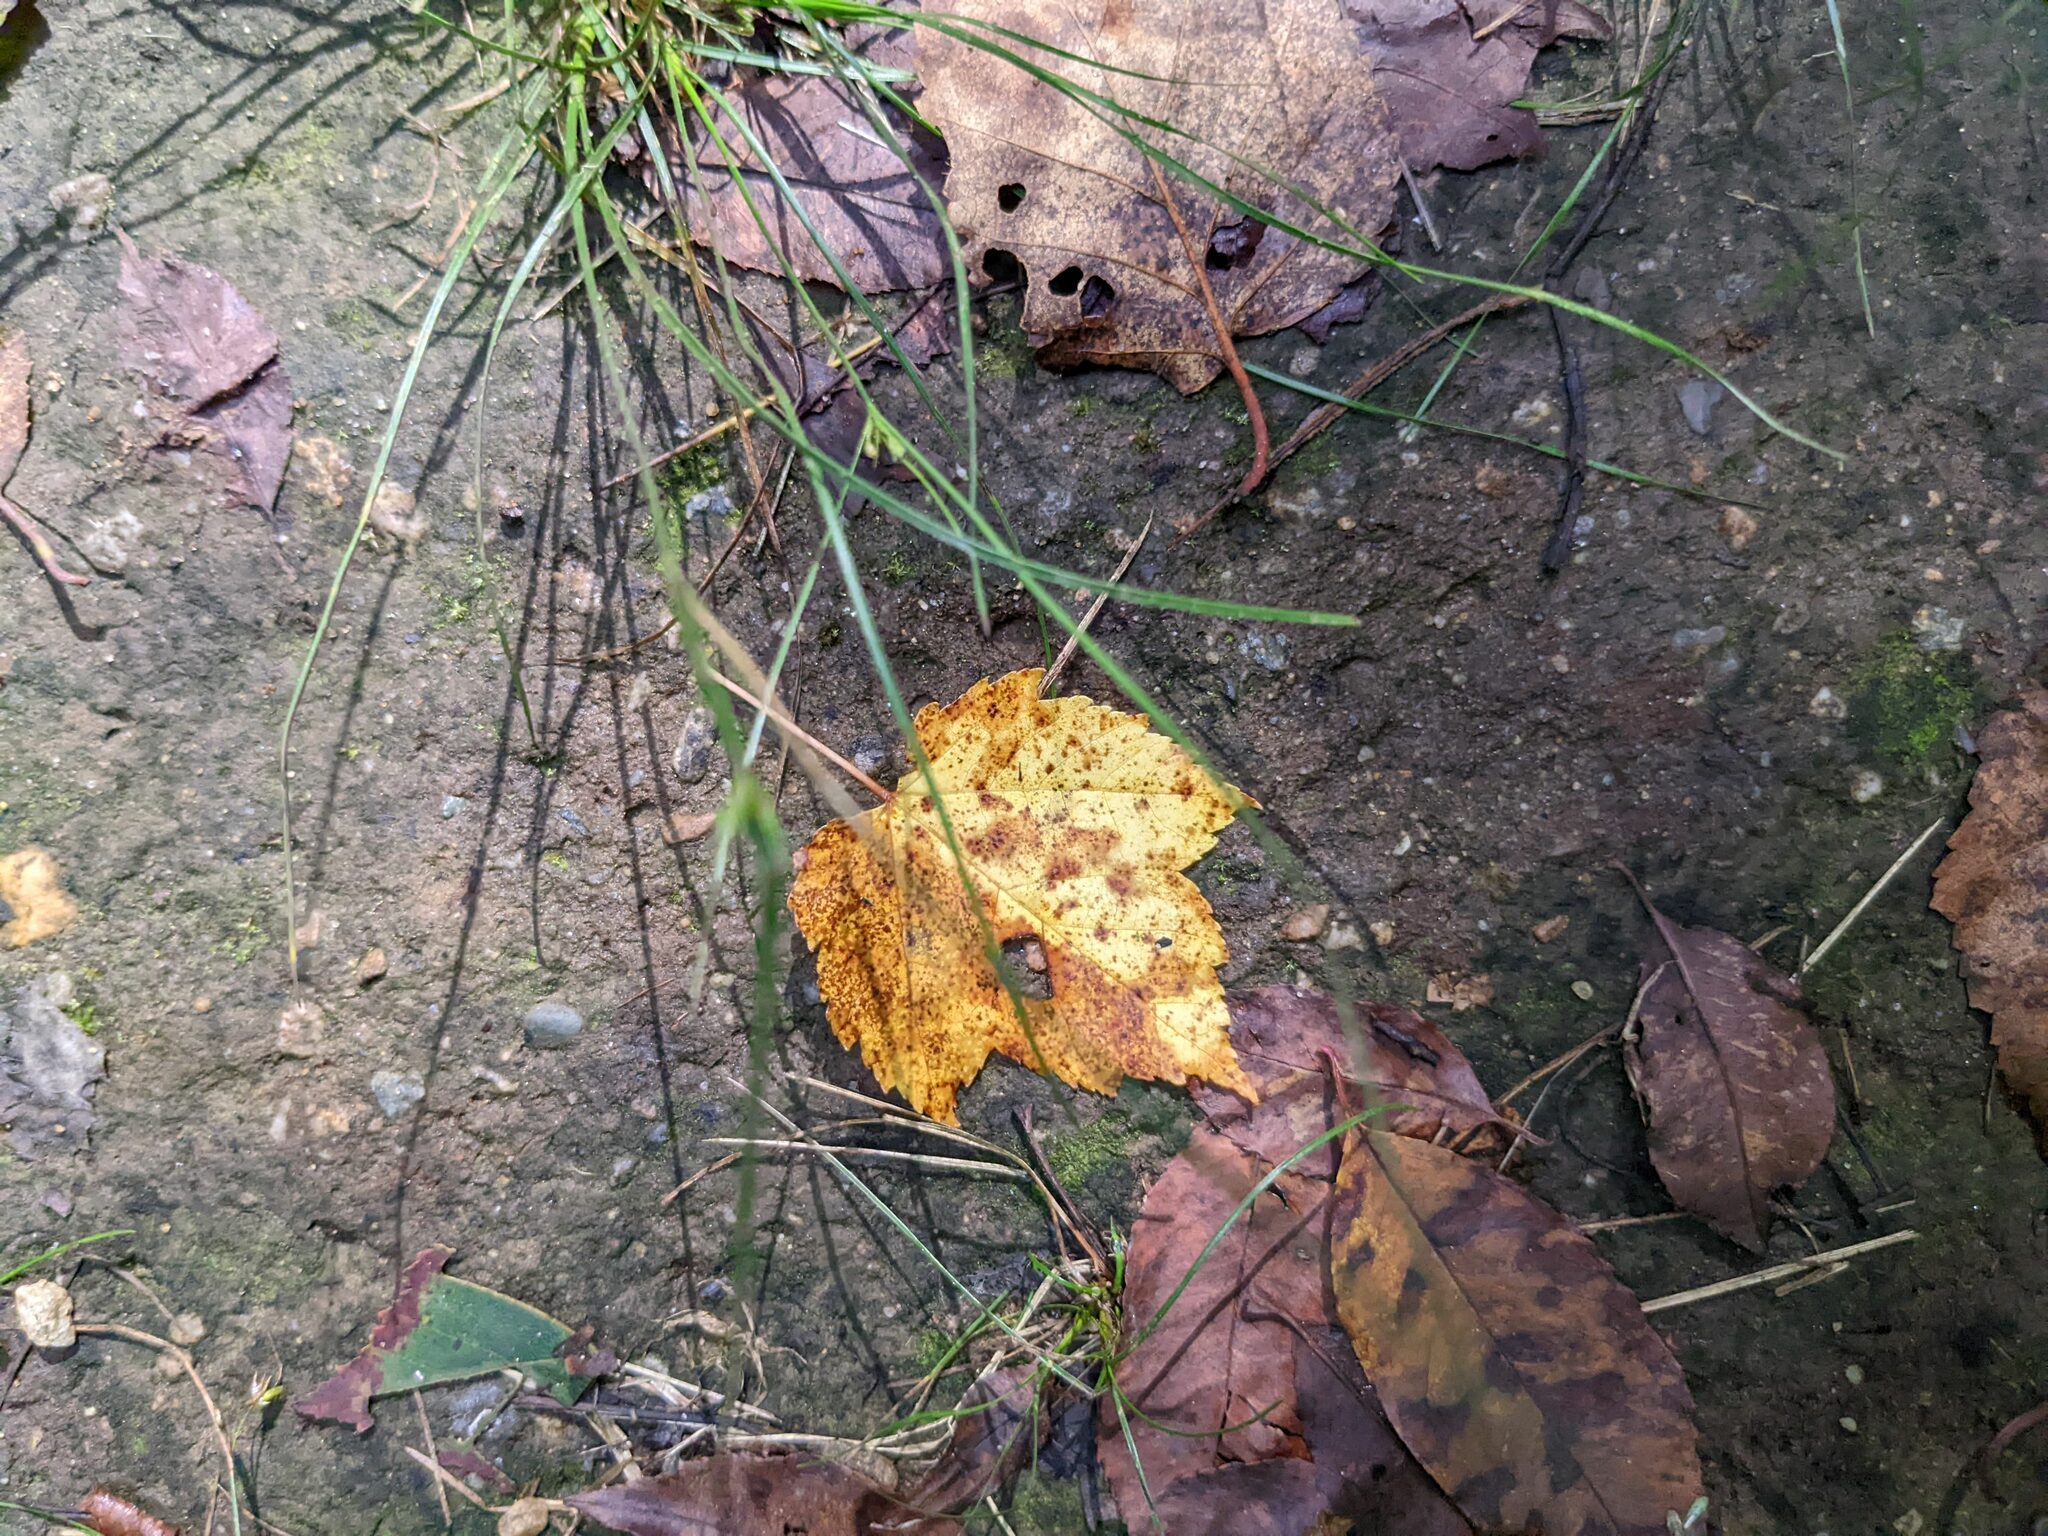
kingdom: Plantae
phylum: Tracheophyta
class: Magnoliopsida
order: Sapindales
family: Sapindaceae
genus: Acer
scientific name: Acer rubrum
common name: Red maple
